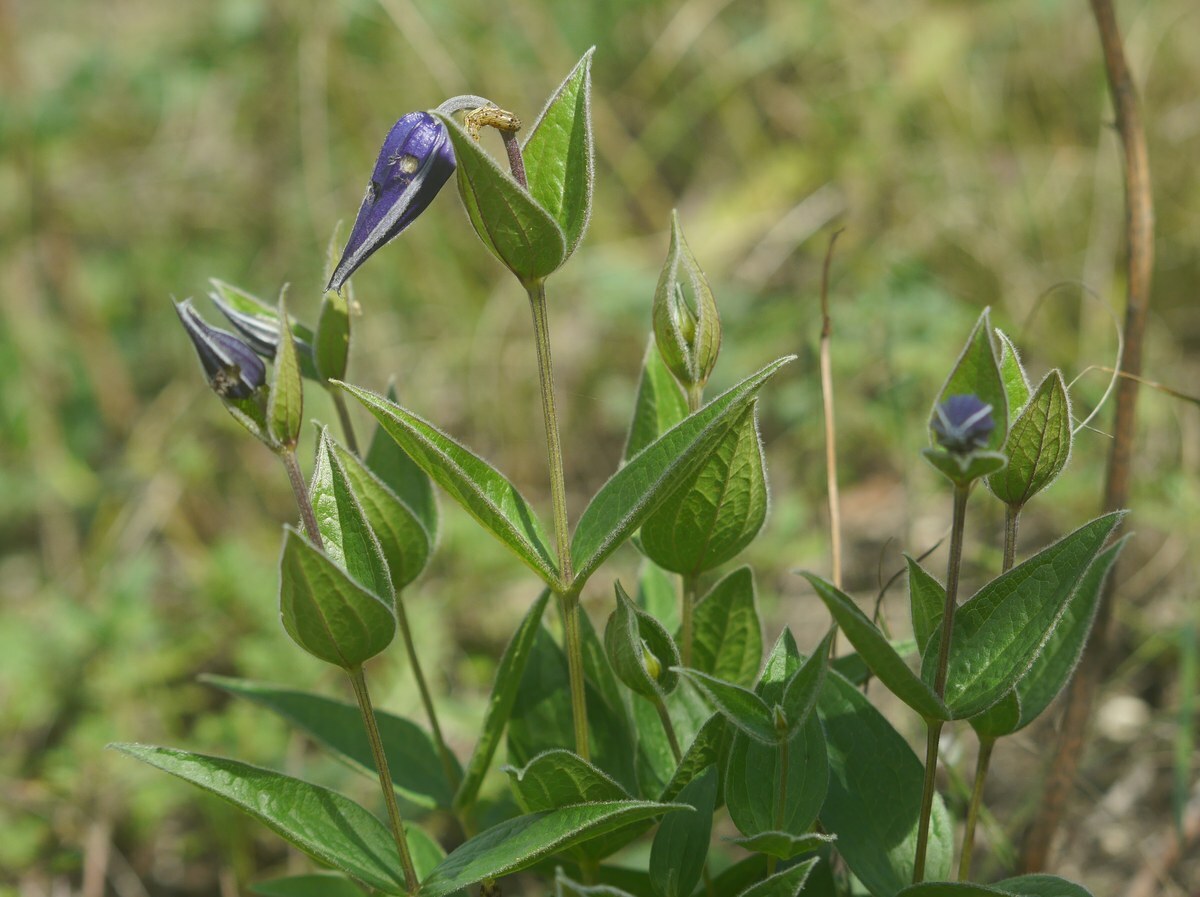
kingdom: Plantae
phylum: Tracheophyta
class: Magnoliopsida
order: Ranunculales
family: Ranunculaceae
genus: Clematis
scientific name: Clematis integrifolia
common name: Solitary clematis
